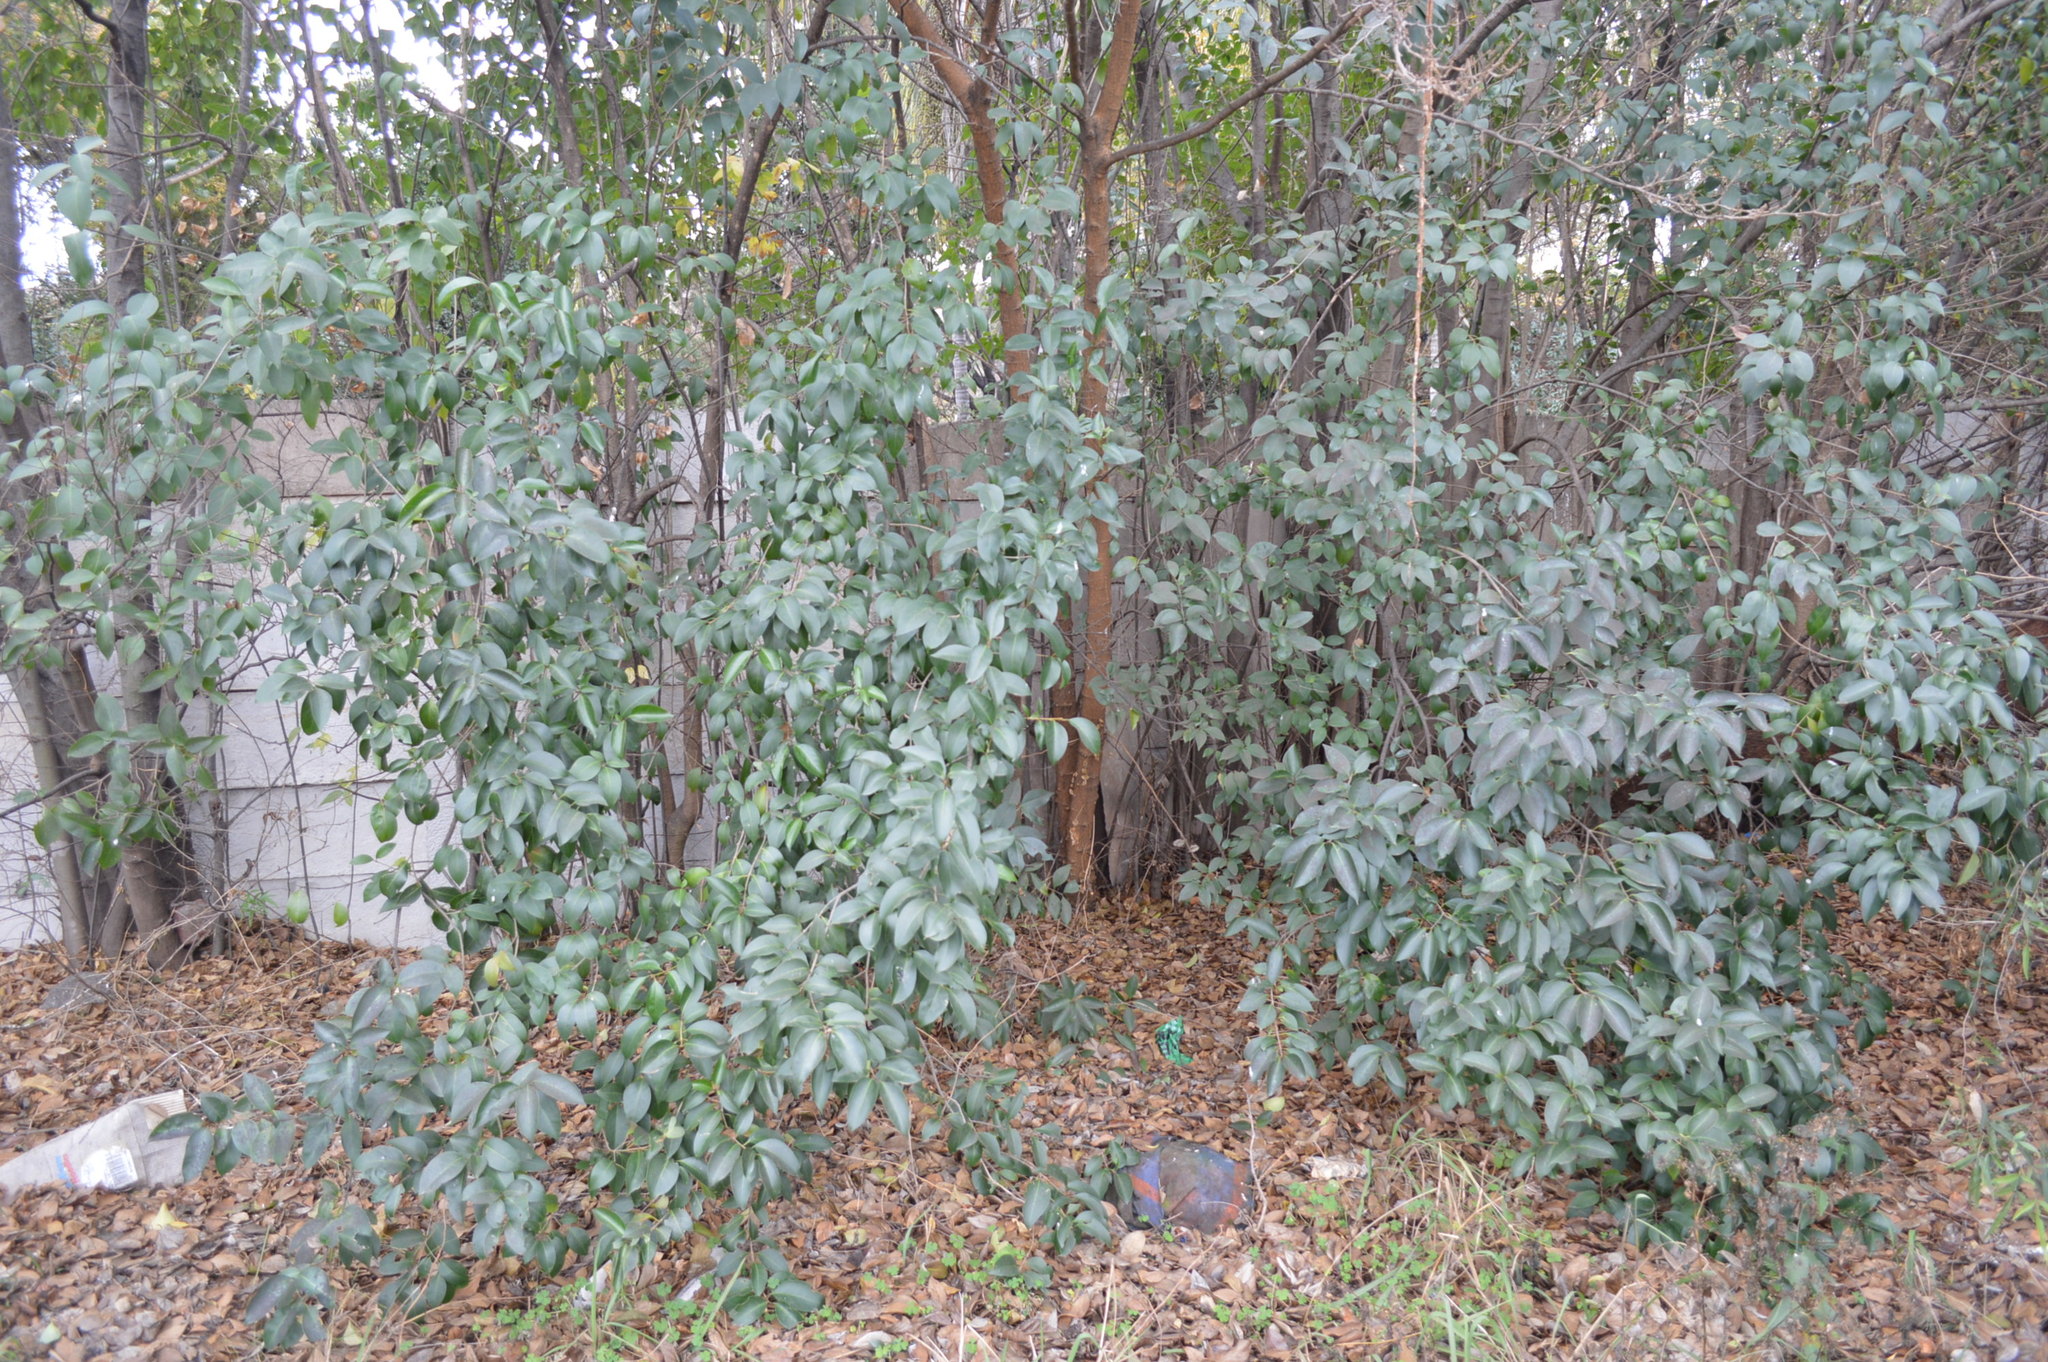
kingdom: Plantae
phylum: Tracheophyta
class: Magnoliopsida
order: Lamiales
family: Oleaceae
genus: Ligustrum
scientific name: Ligustrum lucidum
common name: Glossy privet
